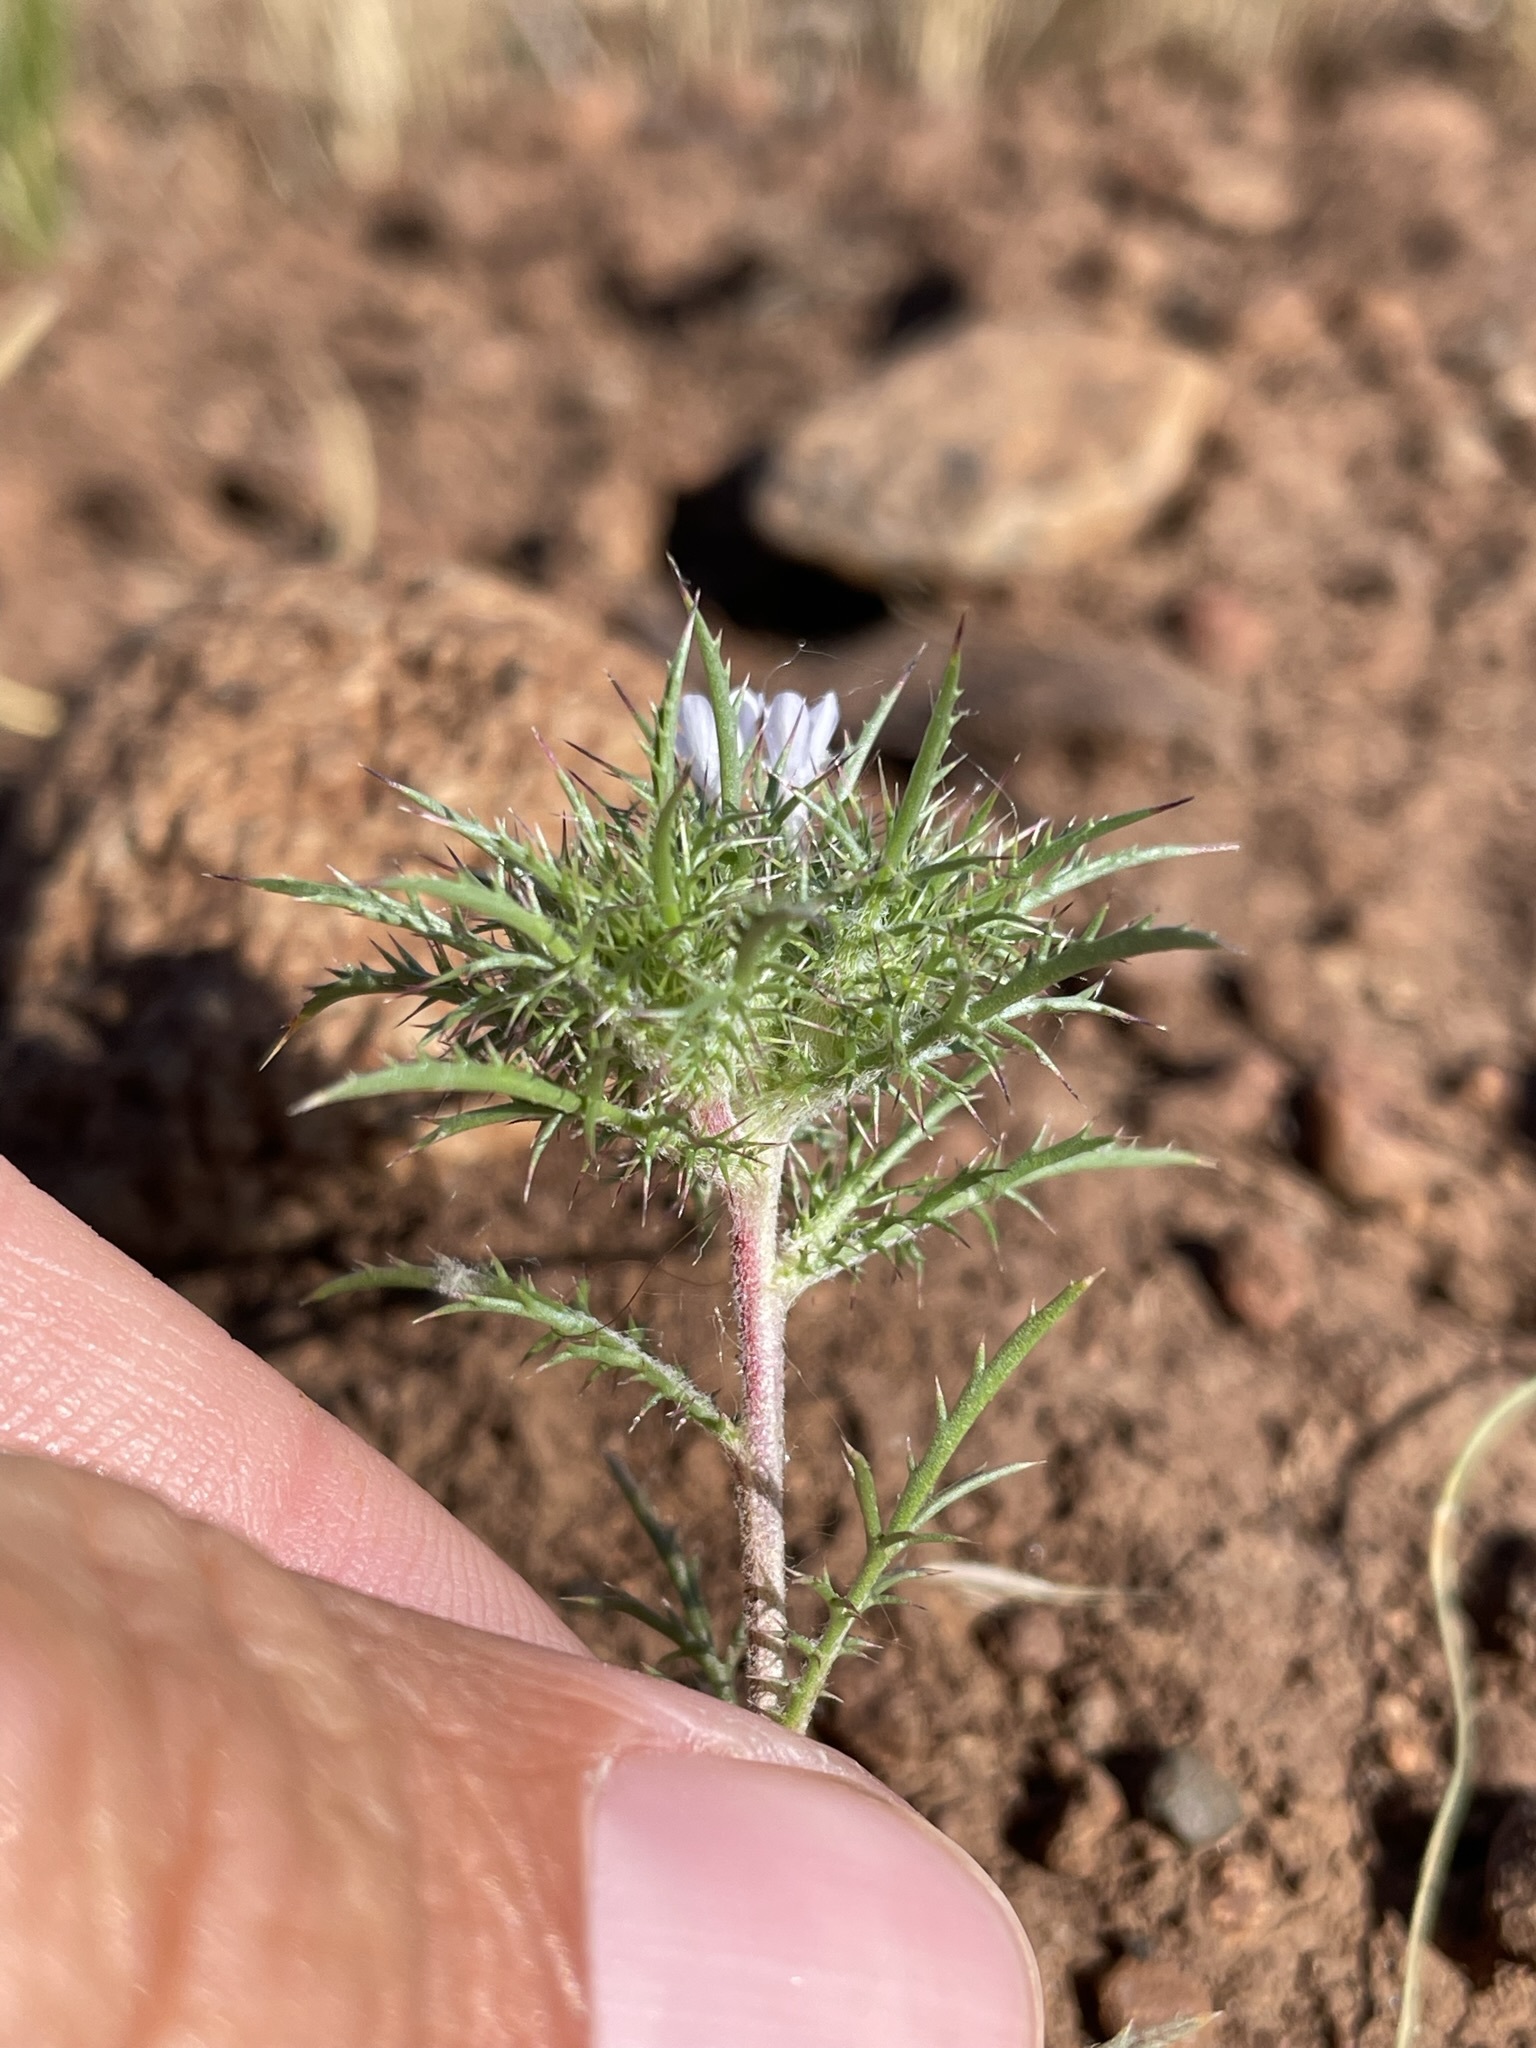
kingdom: Plantae
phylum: Tracheophyta
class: Magnoliopsida
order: Ericales
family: Polemoniaceae
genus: Navarretia
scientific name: Navarretia tagetina
